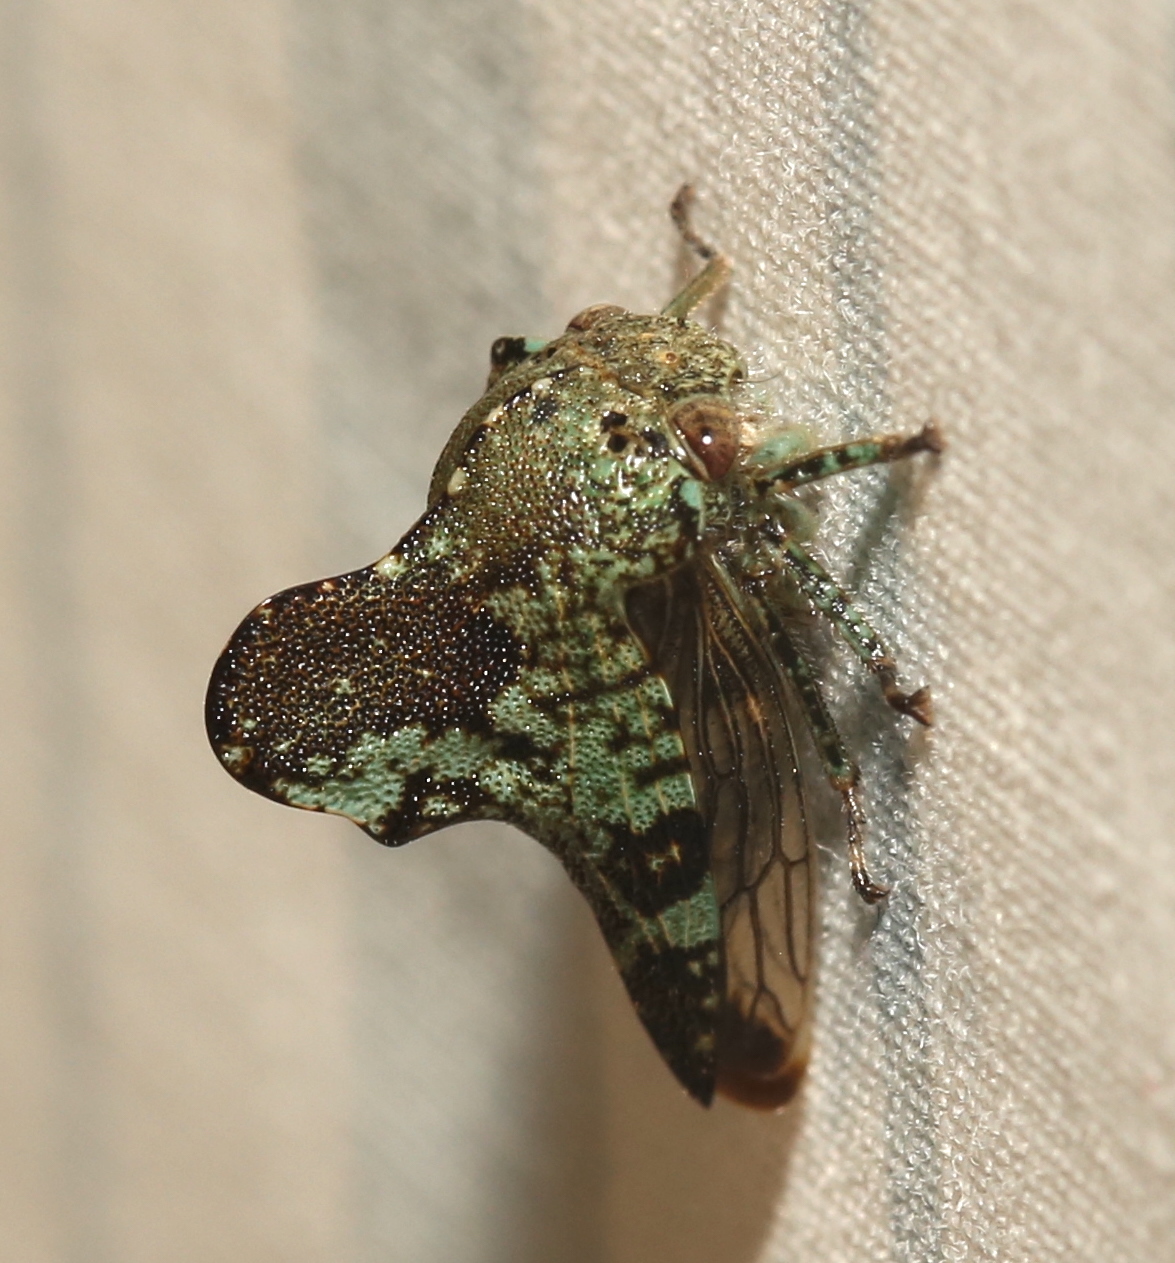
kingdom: Animalia
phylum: Arthropoda
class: Insecta
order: Hemiptera
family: Membracidae
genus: Telamona
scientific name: Telamona concava
